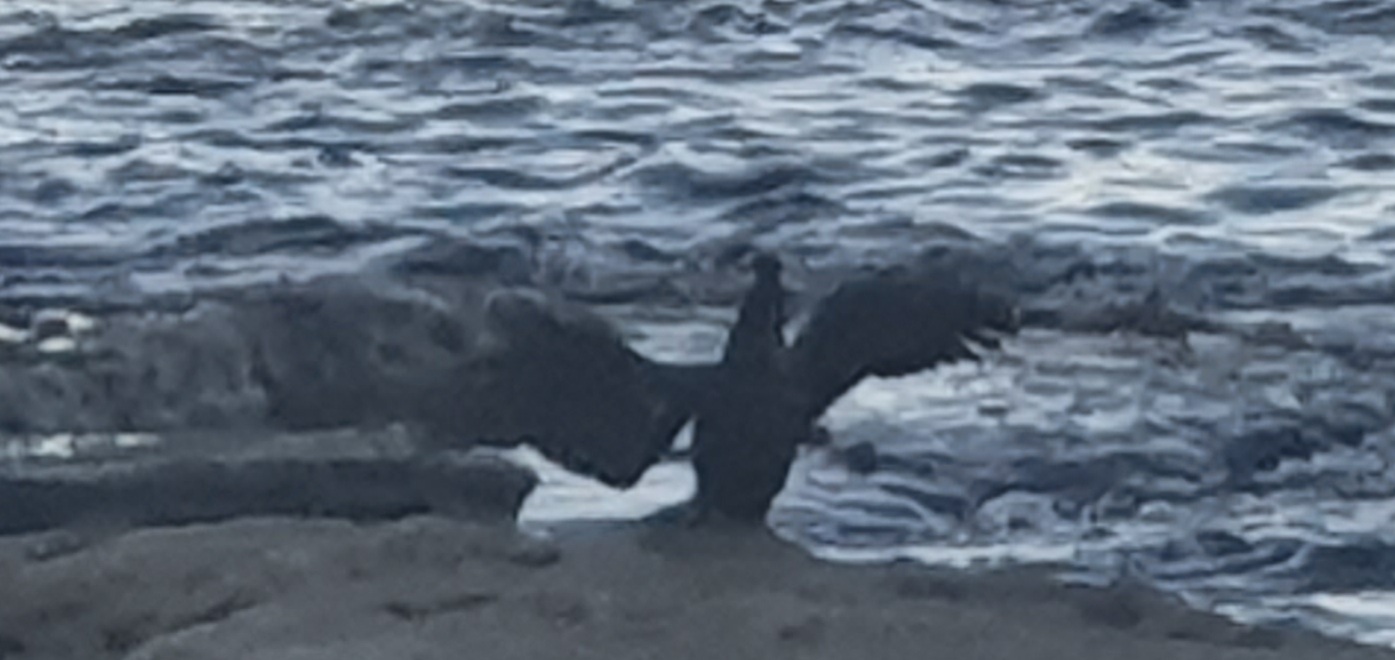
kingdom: Animalia
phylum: Chordata
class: Aves
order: Suliformes
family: Anhingidae
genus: Anhinga
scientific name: Anhinga novaehollandiae
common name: Australasian darter
